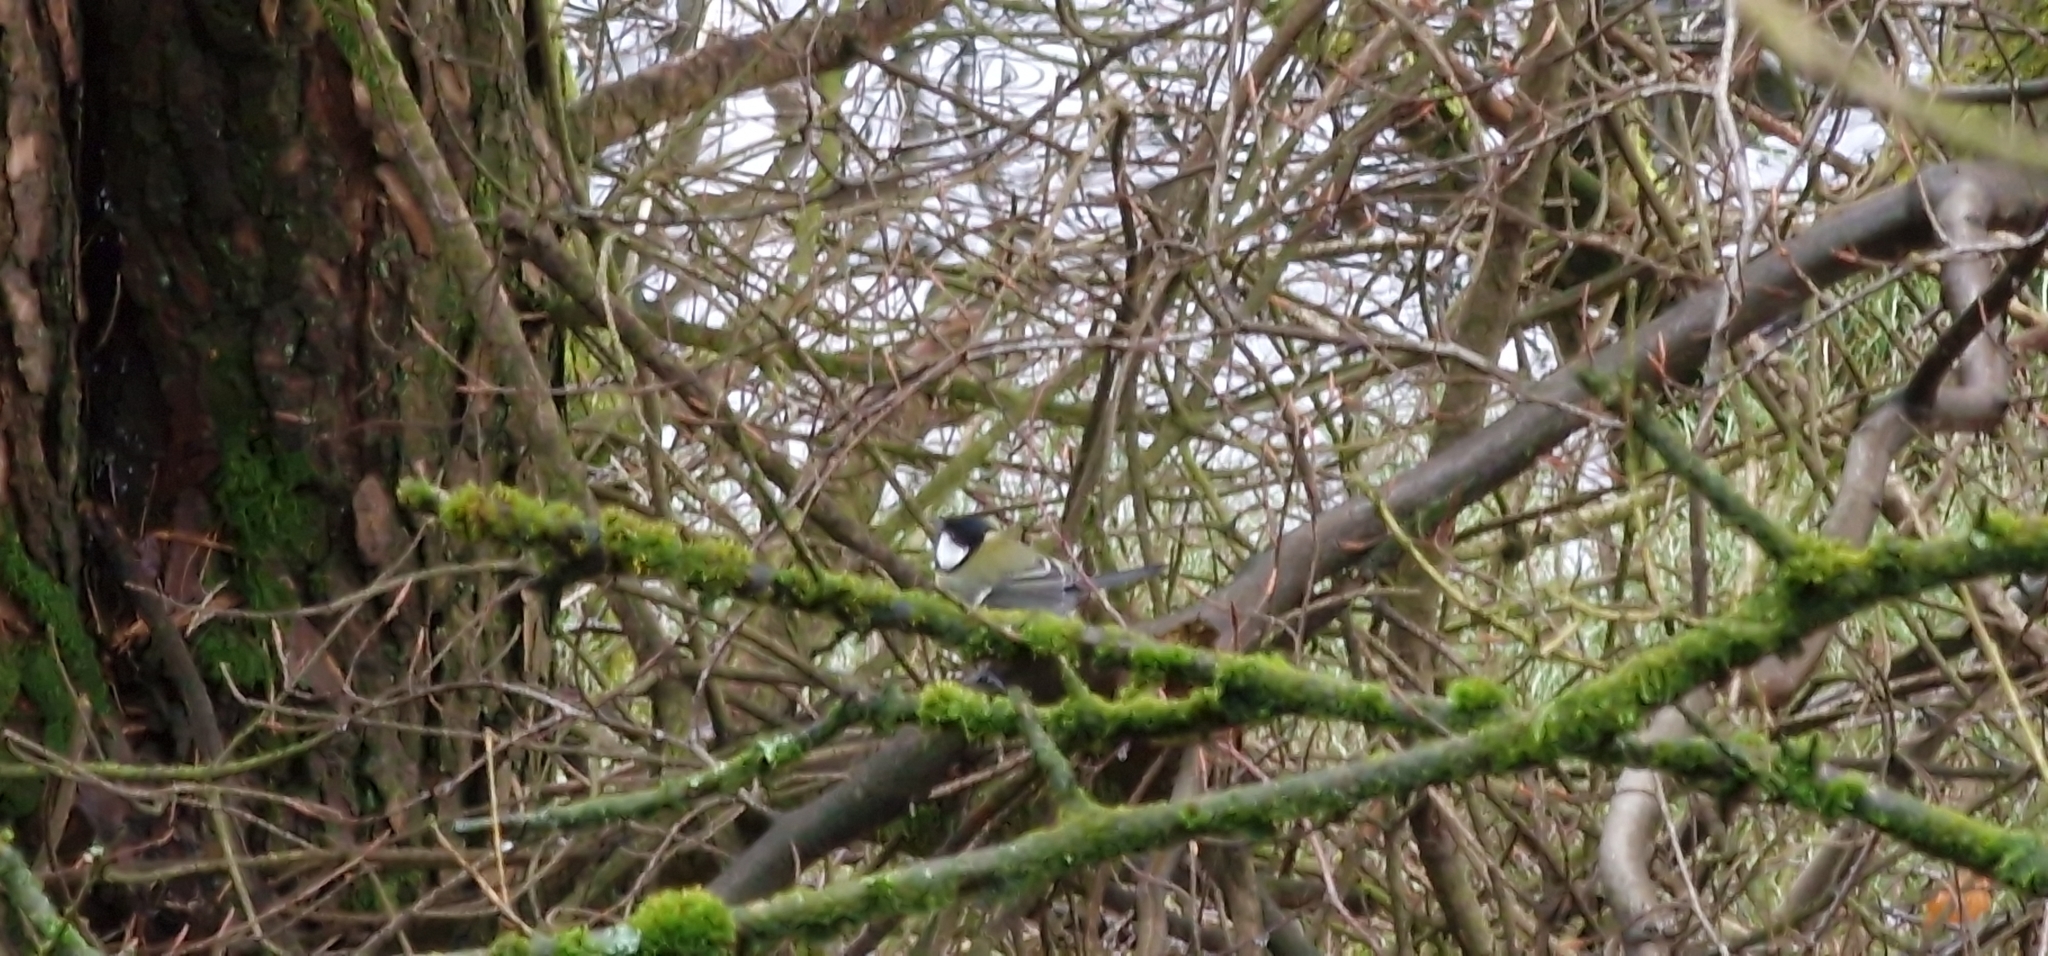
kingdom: Animalia
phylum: Chordata
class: Aves
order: Passeriformes
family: Paridae
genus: Parus
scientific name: Parus major
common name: Great tit
